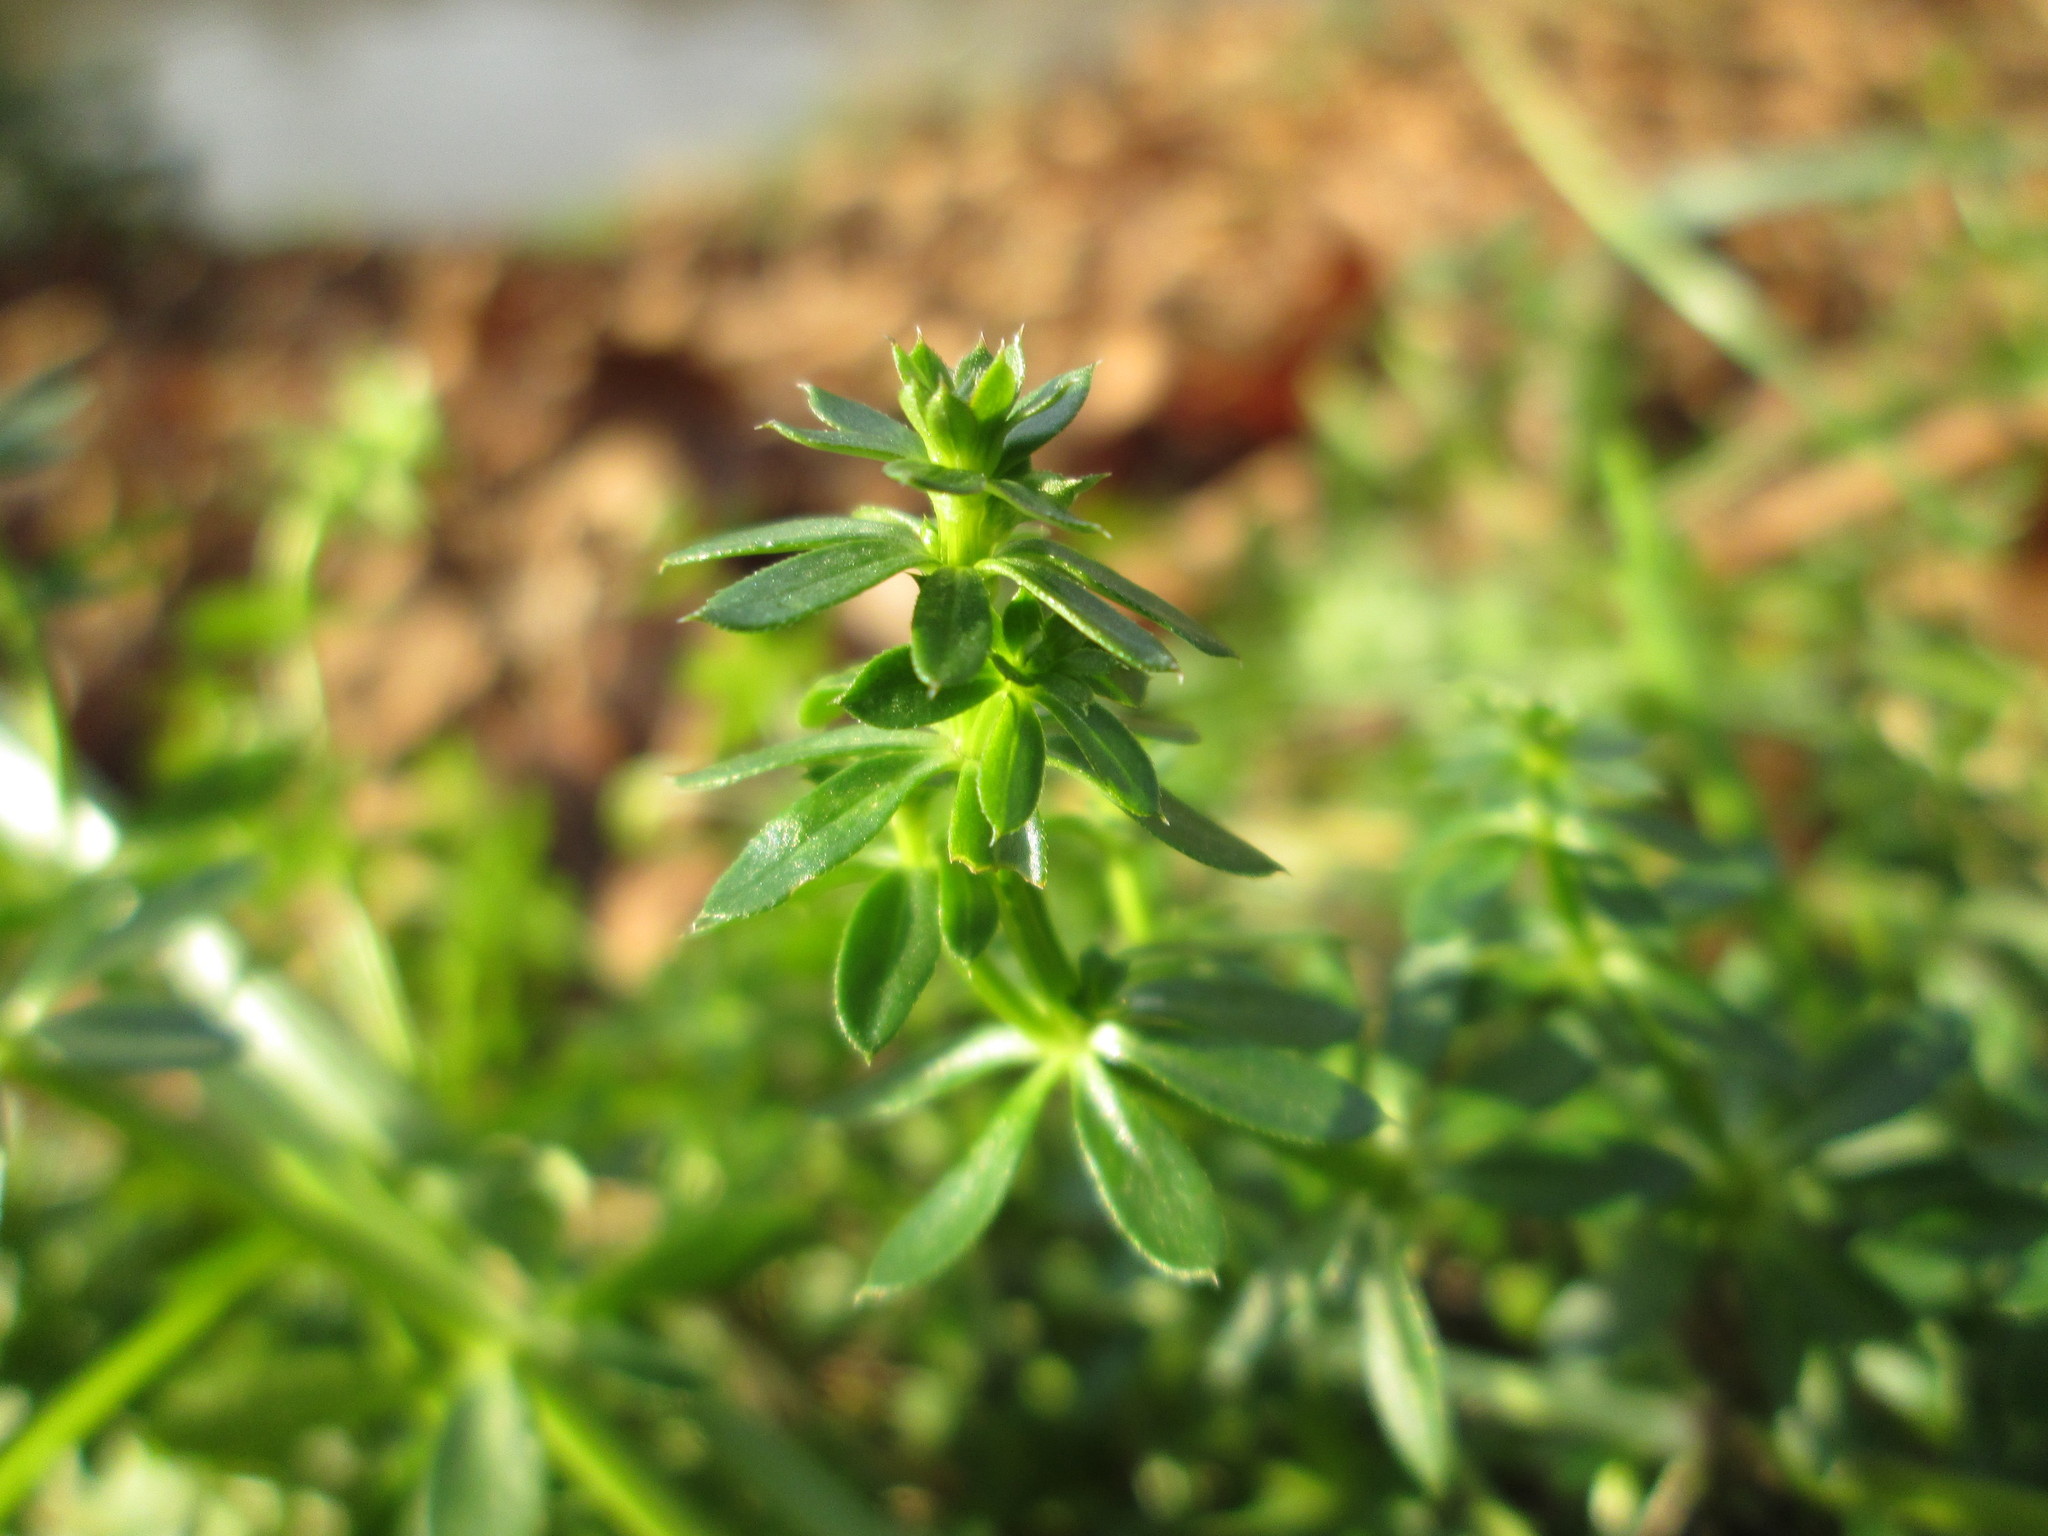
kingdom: Plantae
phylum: Tracheophyta
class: Magnoliopsida
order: Gentianales
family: Rubiaceae
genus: Galium
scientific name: Galium mollugo
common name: Hedge bedstraw
